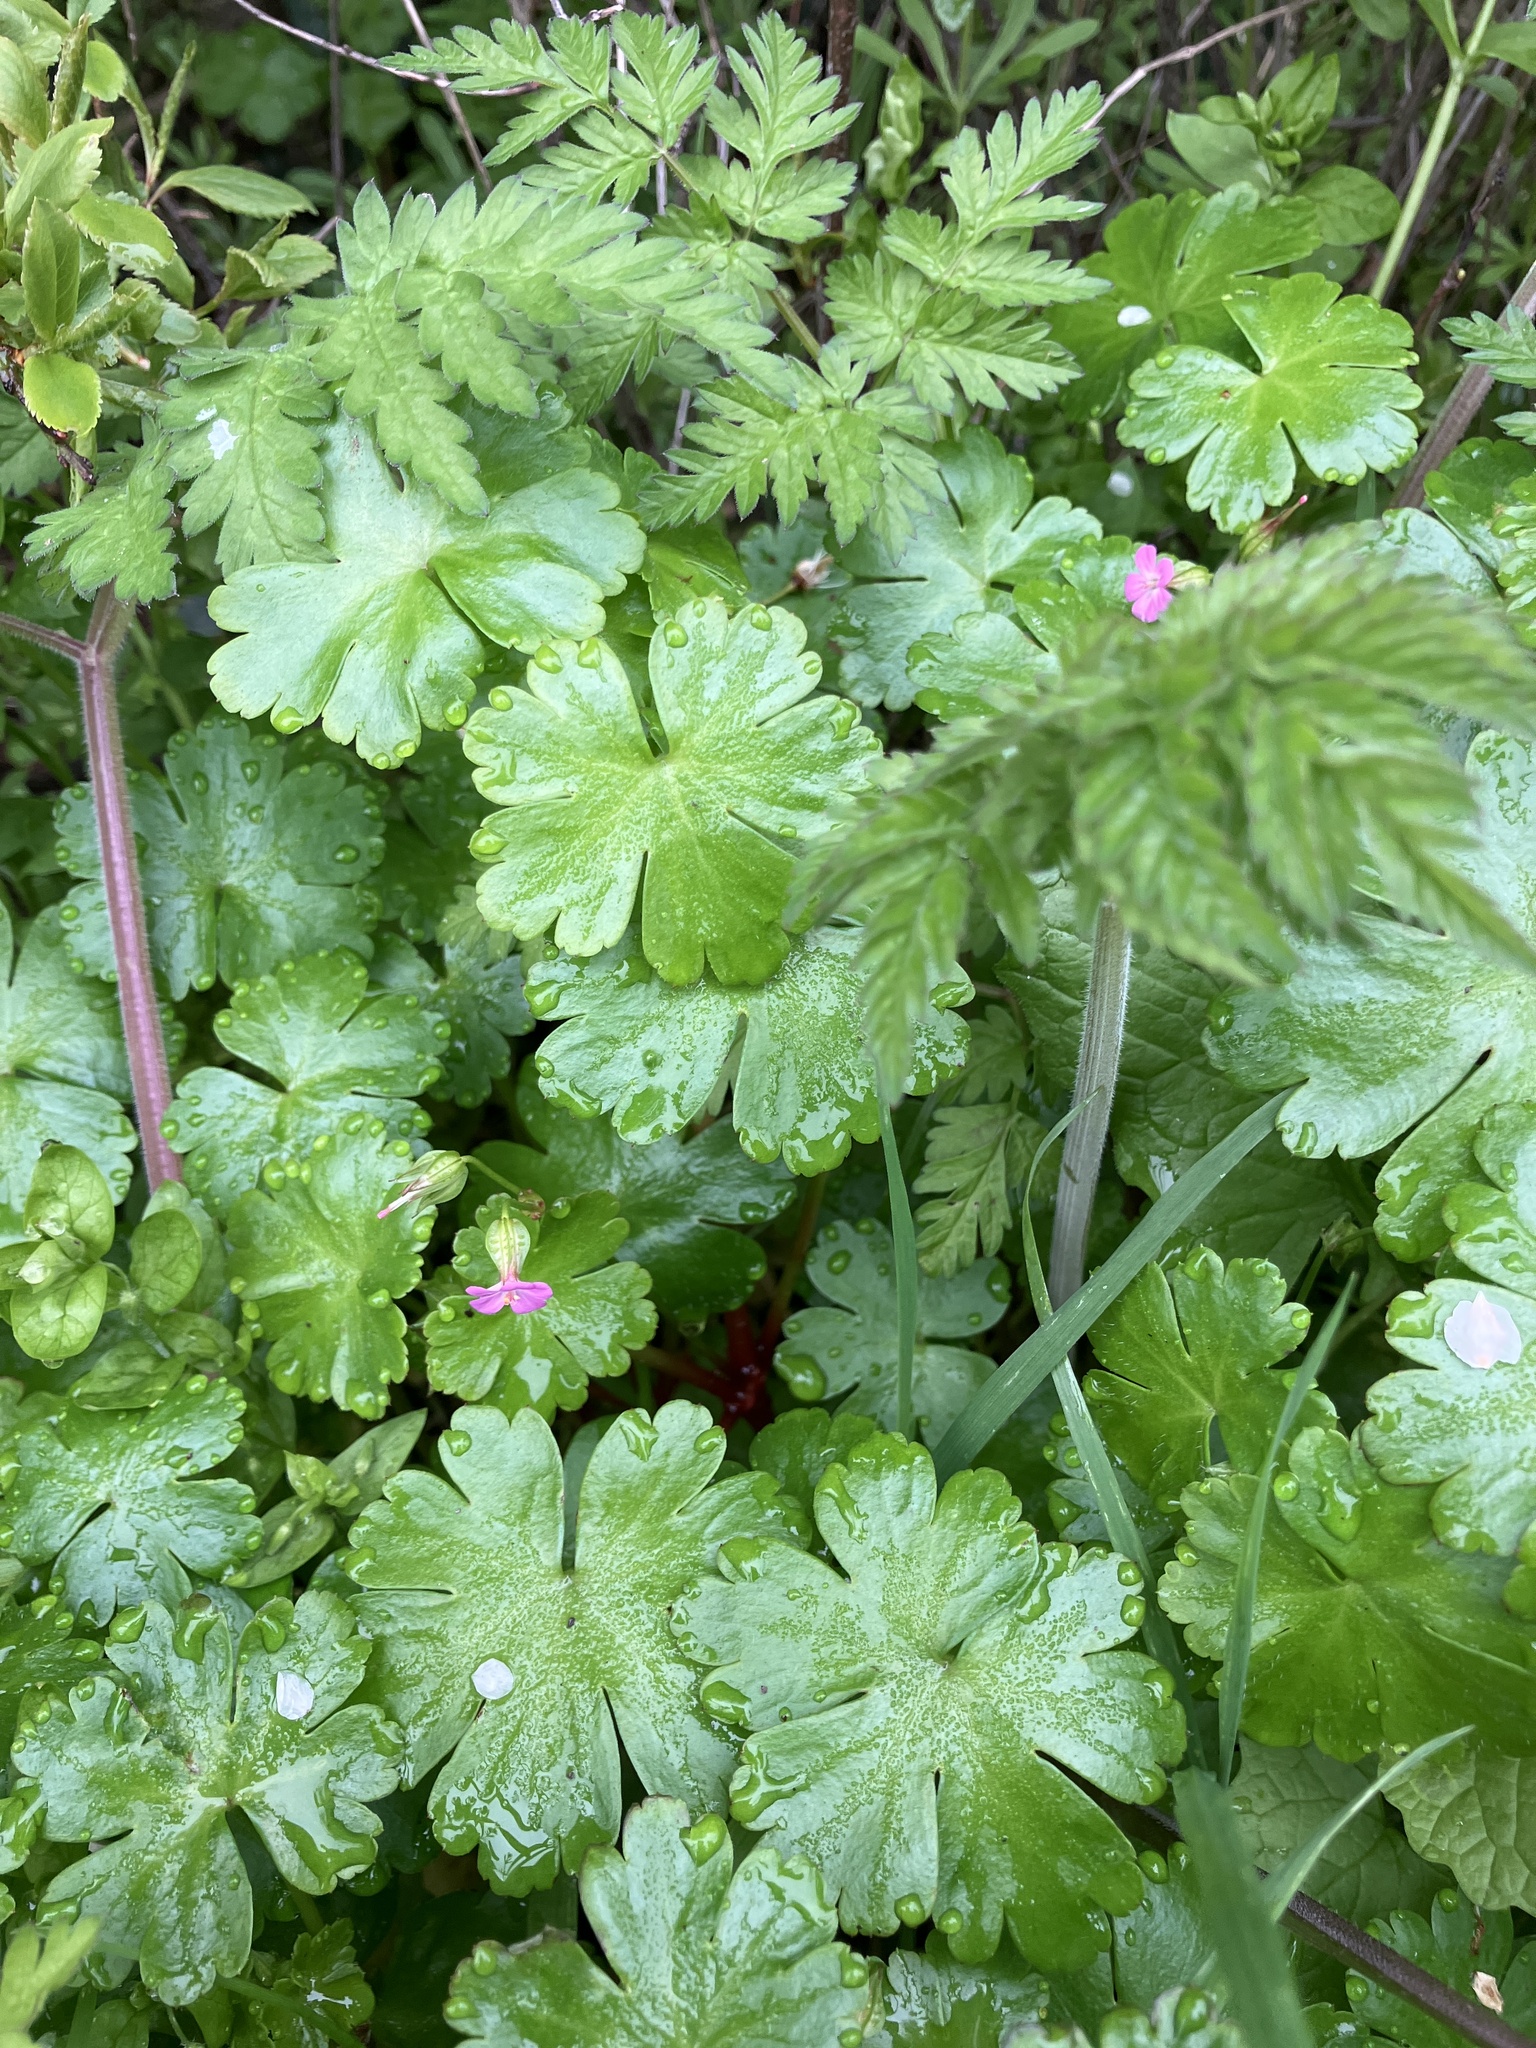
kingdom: Plantae
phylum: Tracheophyta
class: Magnoliopsida
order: Geraniales
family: Geraniaceae
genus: Geranium
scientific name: Geranium lucidum
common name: Shining crane's-bill
